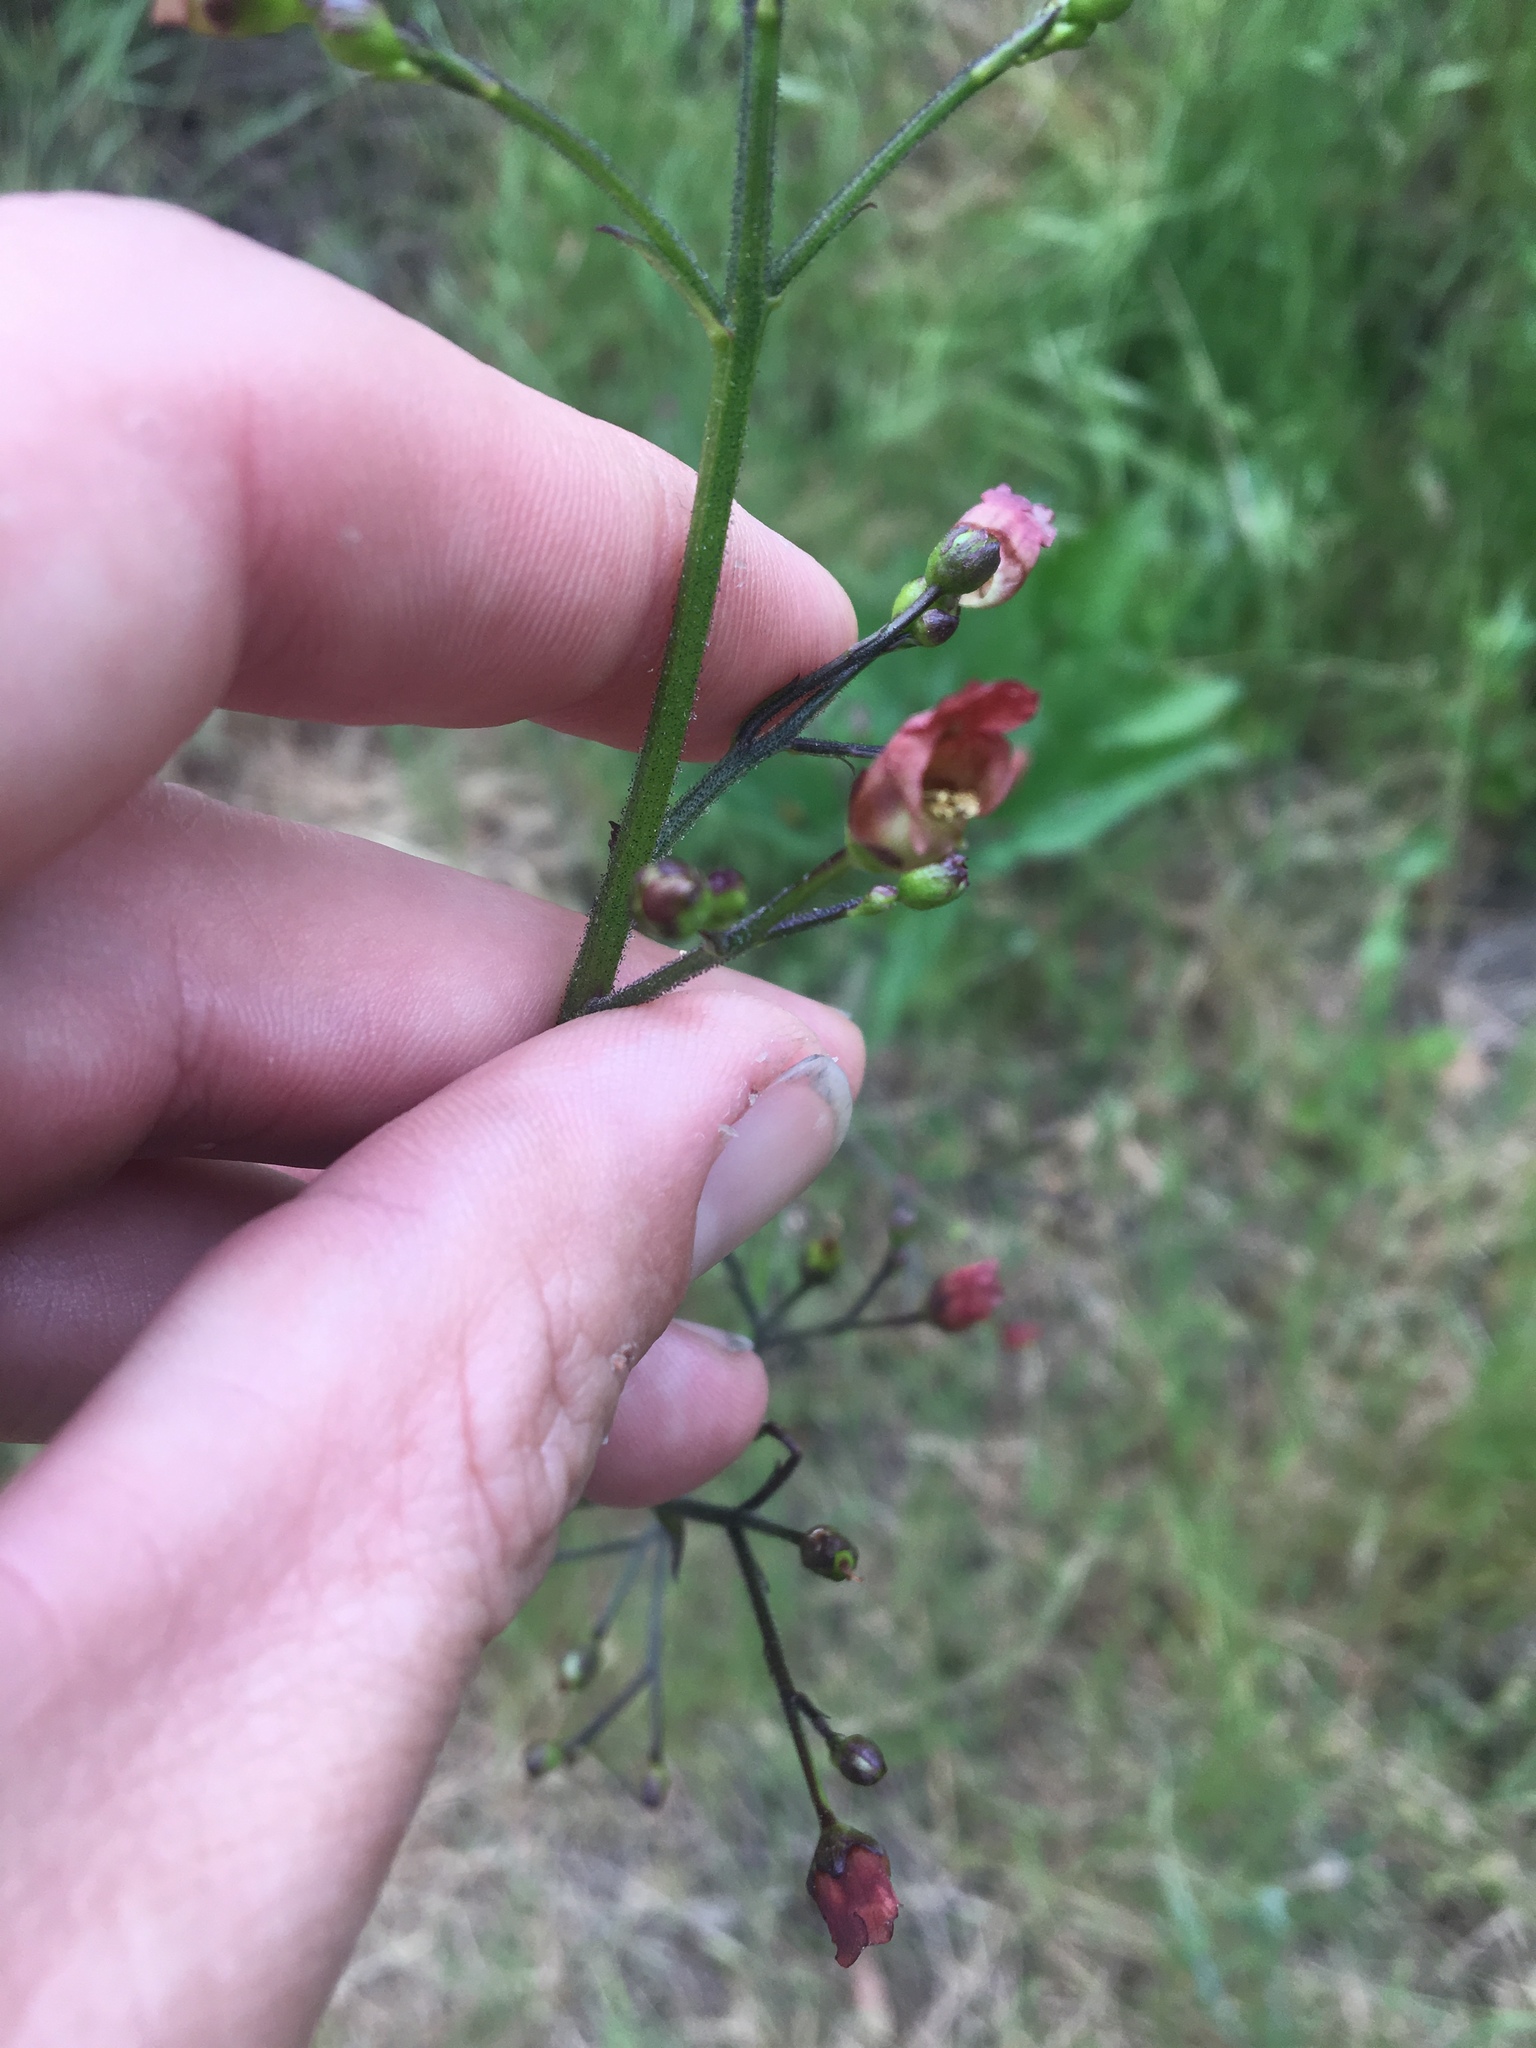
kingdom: Plantae
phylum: Tracheophyta
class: Magnoliopsida
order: Lamiales
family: Scrophulariaceae
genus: Scrophularia
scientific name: Scrophularia californica
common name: California figwort
